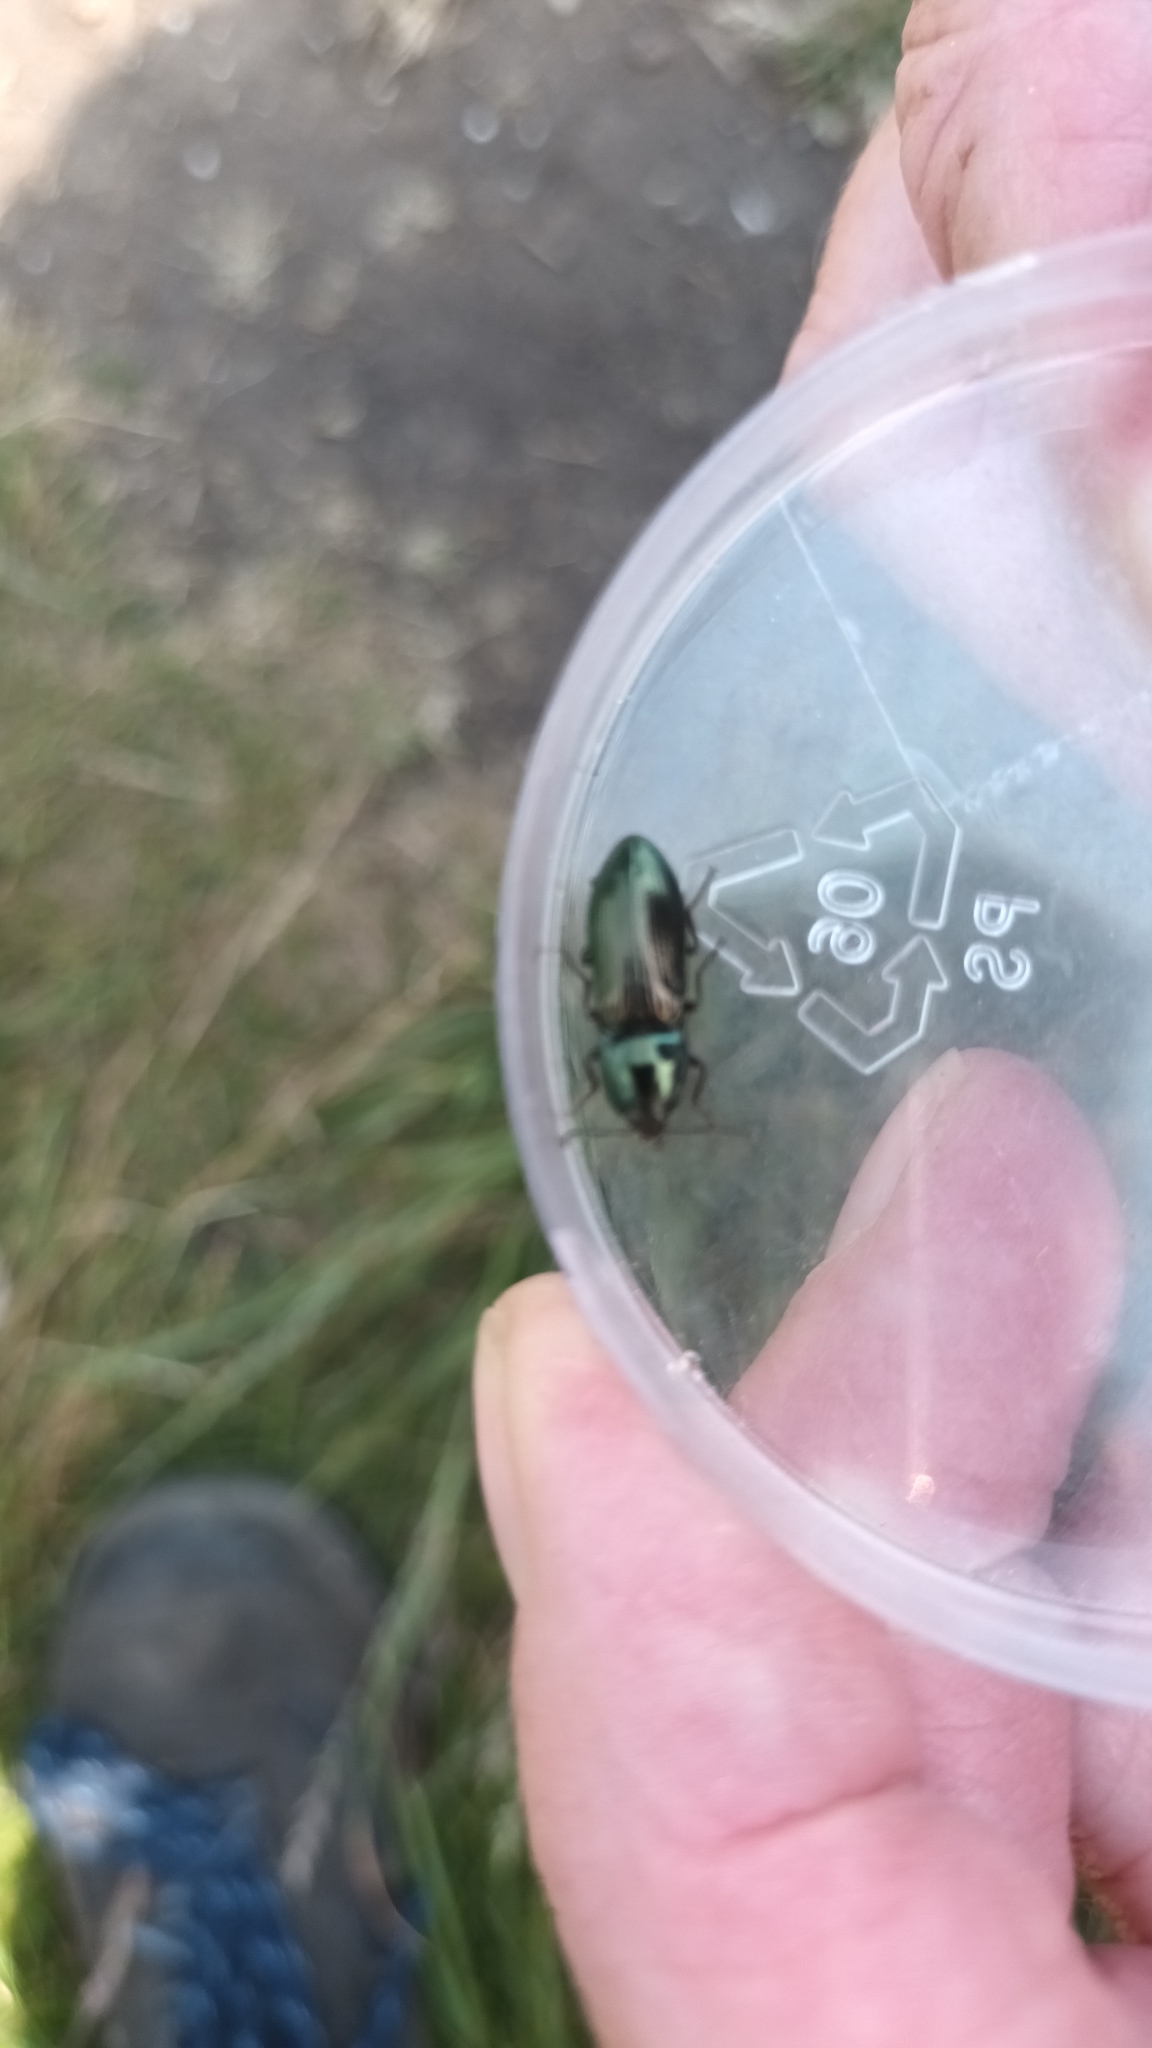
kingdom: Animalia
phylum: Arthropoda
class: Insecta
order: Coleoptera
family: Elateridae
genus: Selatosomus
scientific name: Selatosomus aeneus
